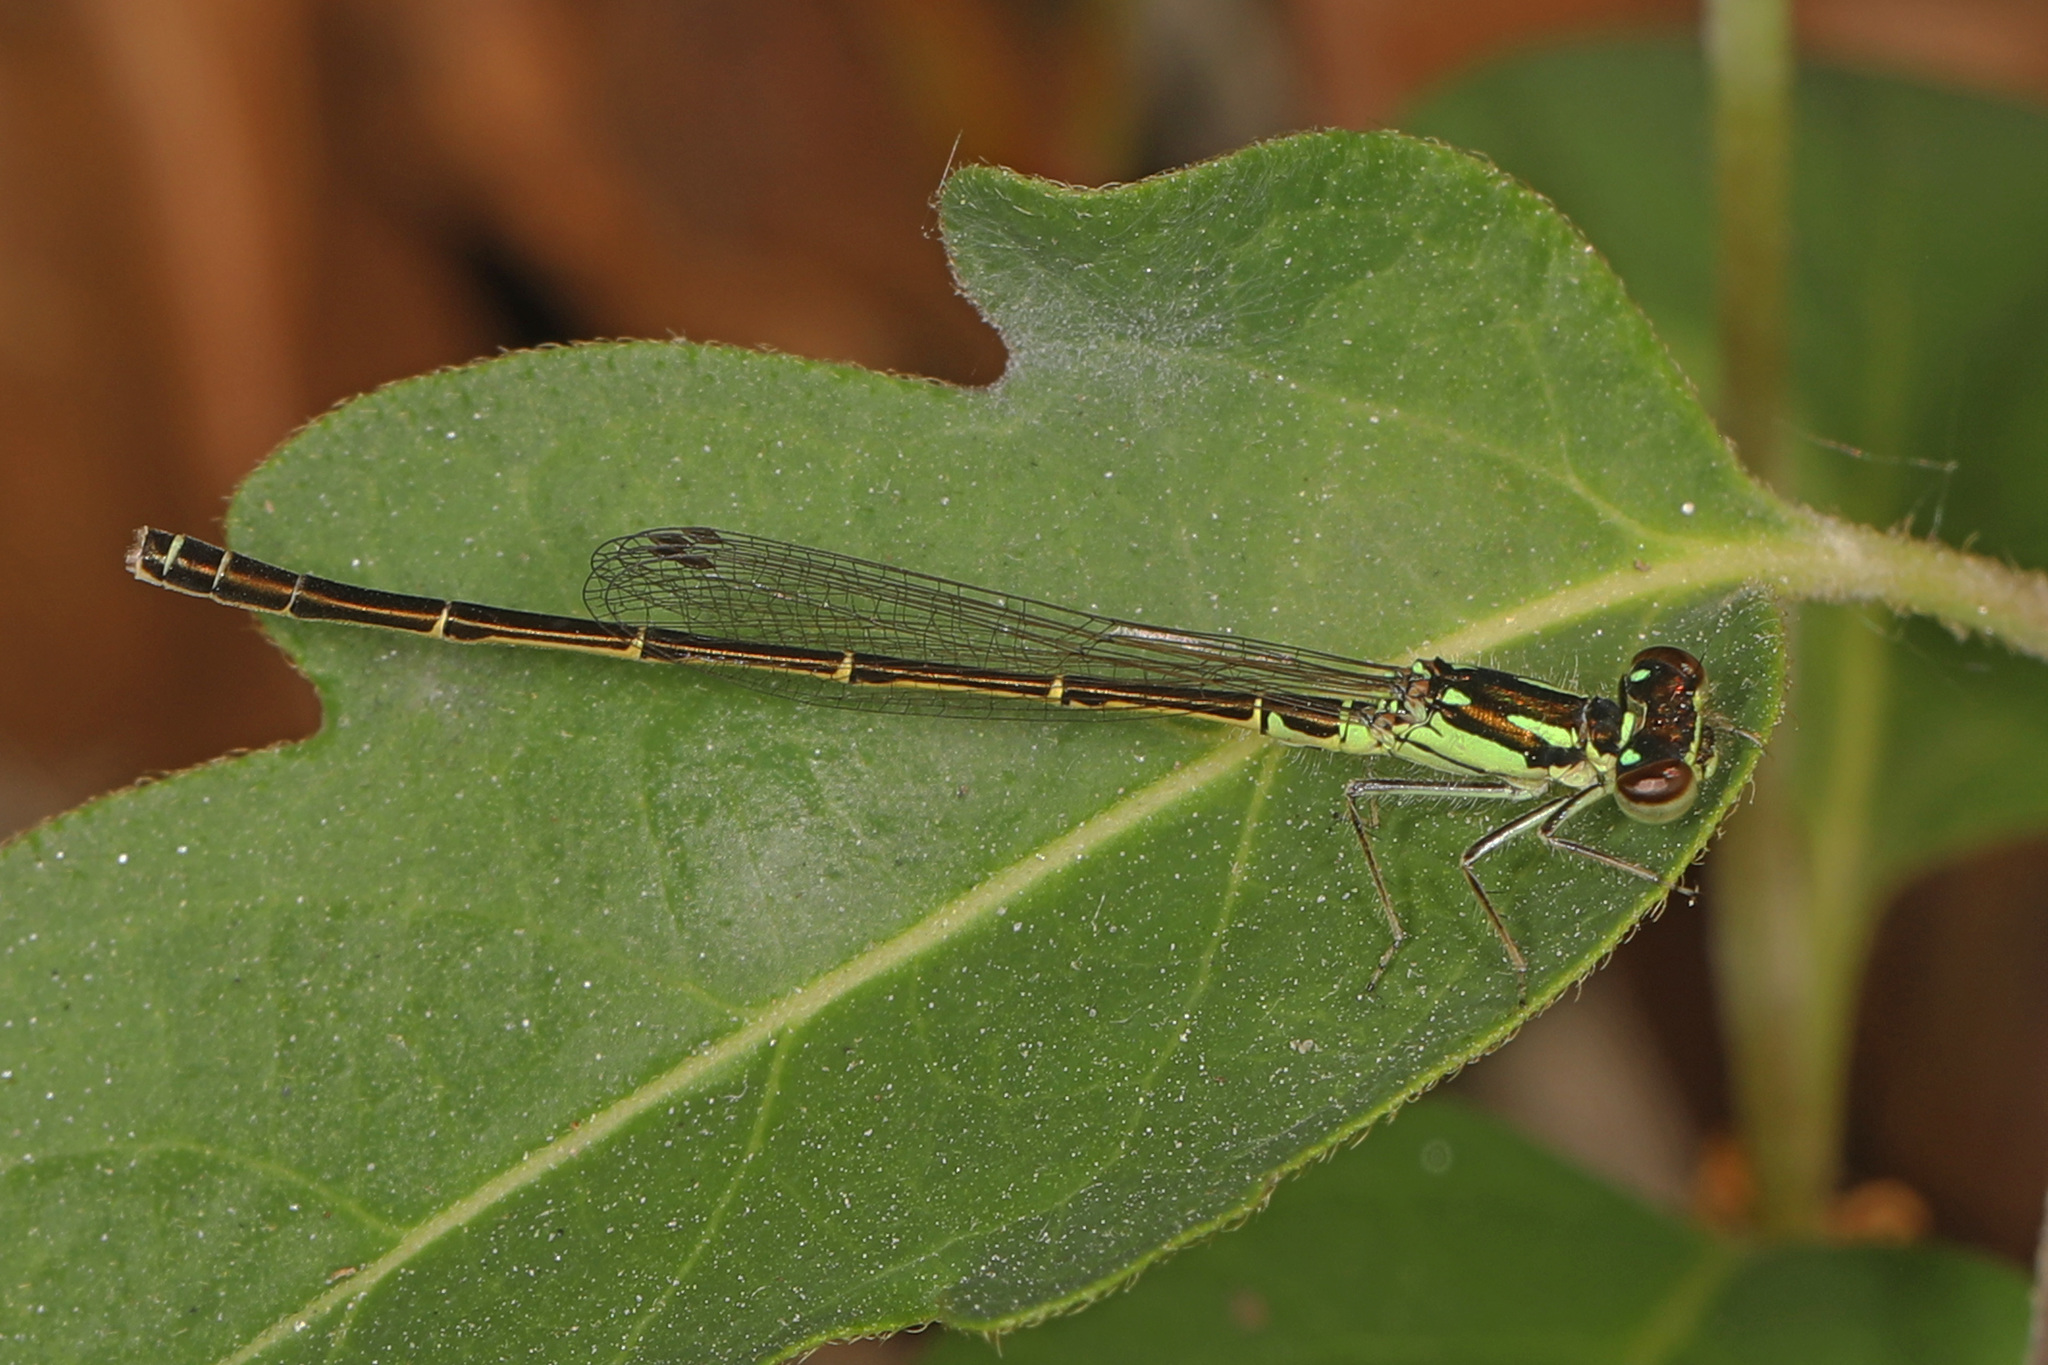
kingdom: Animalia
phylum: Arthropoda
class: Insecta
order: Odonata
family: Coenagrionidae
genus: Ischnura
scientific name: Ischnura posita
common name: Fragile forktail
